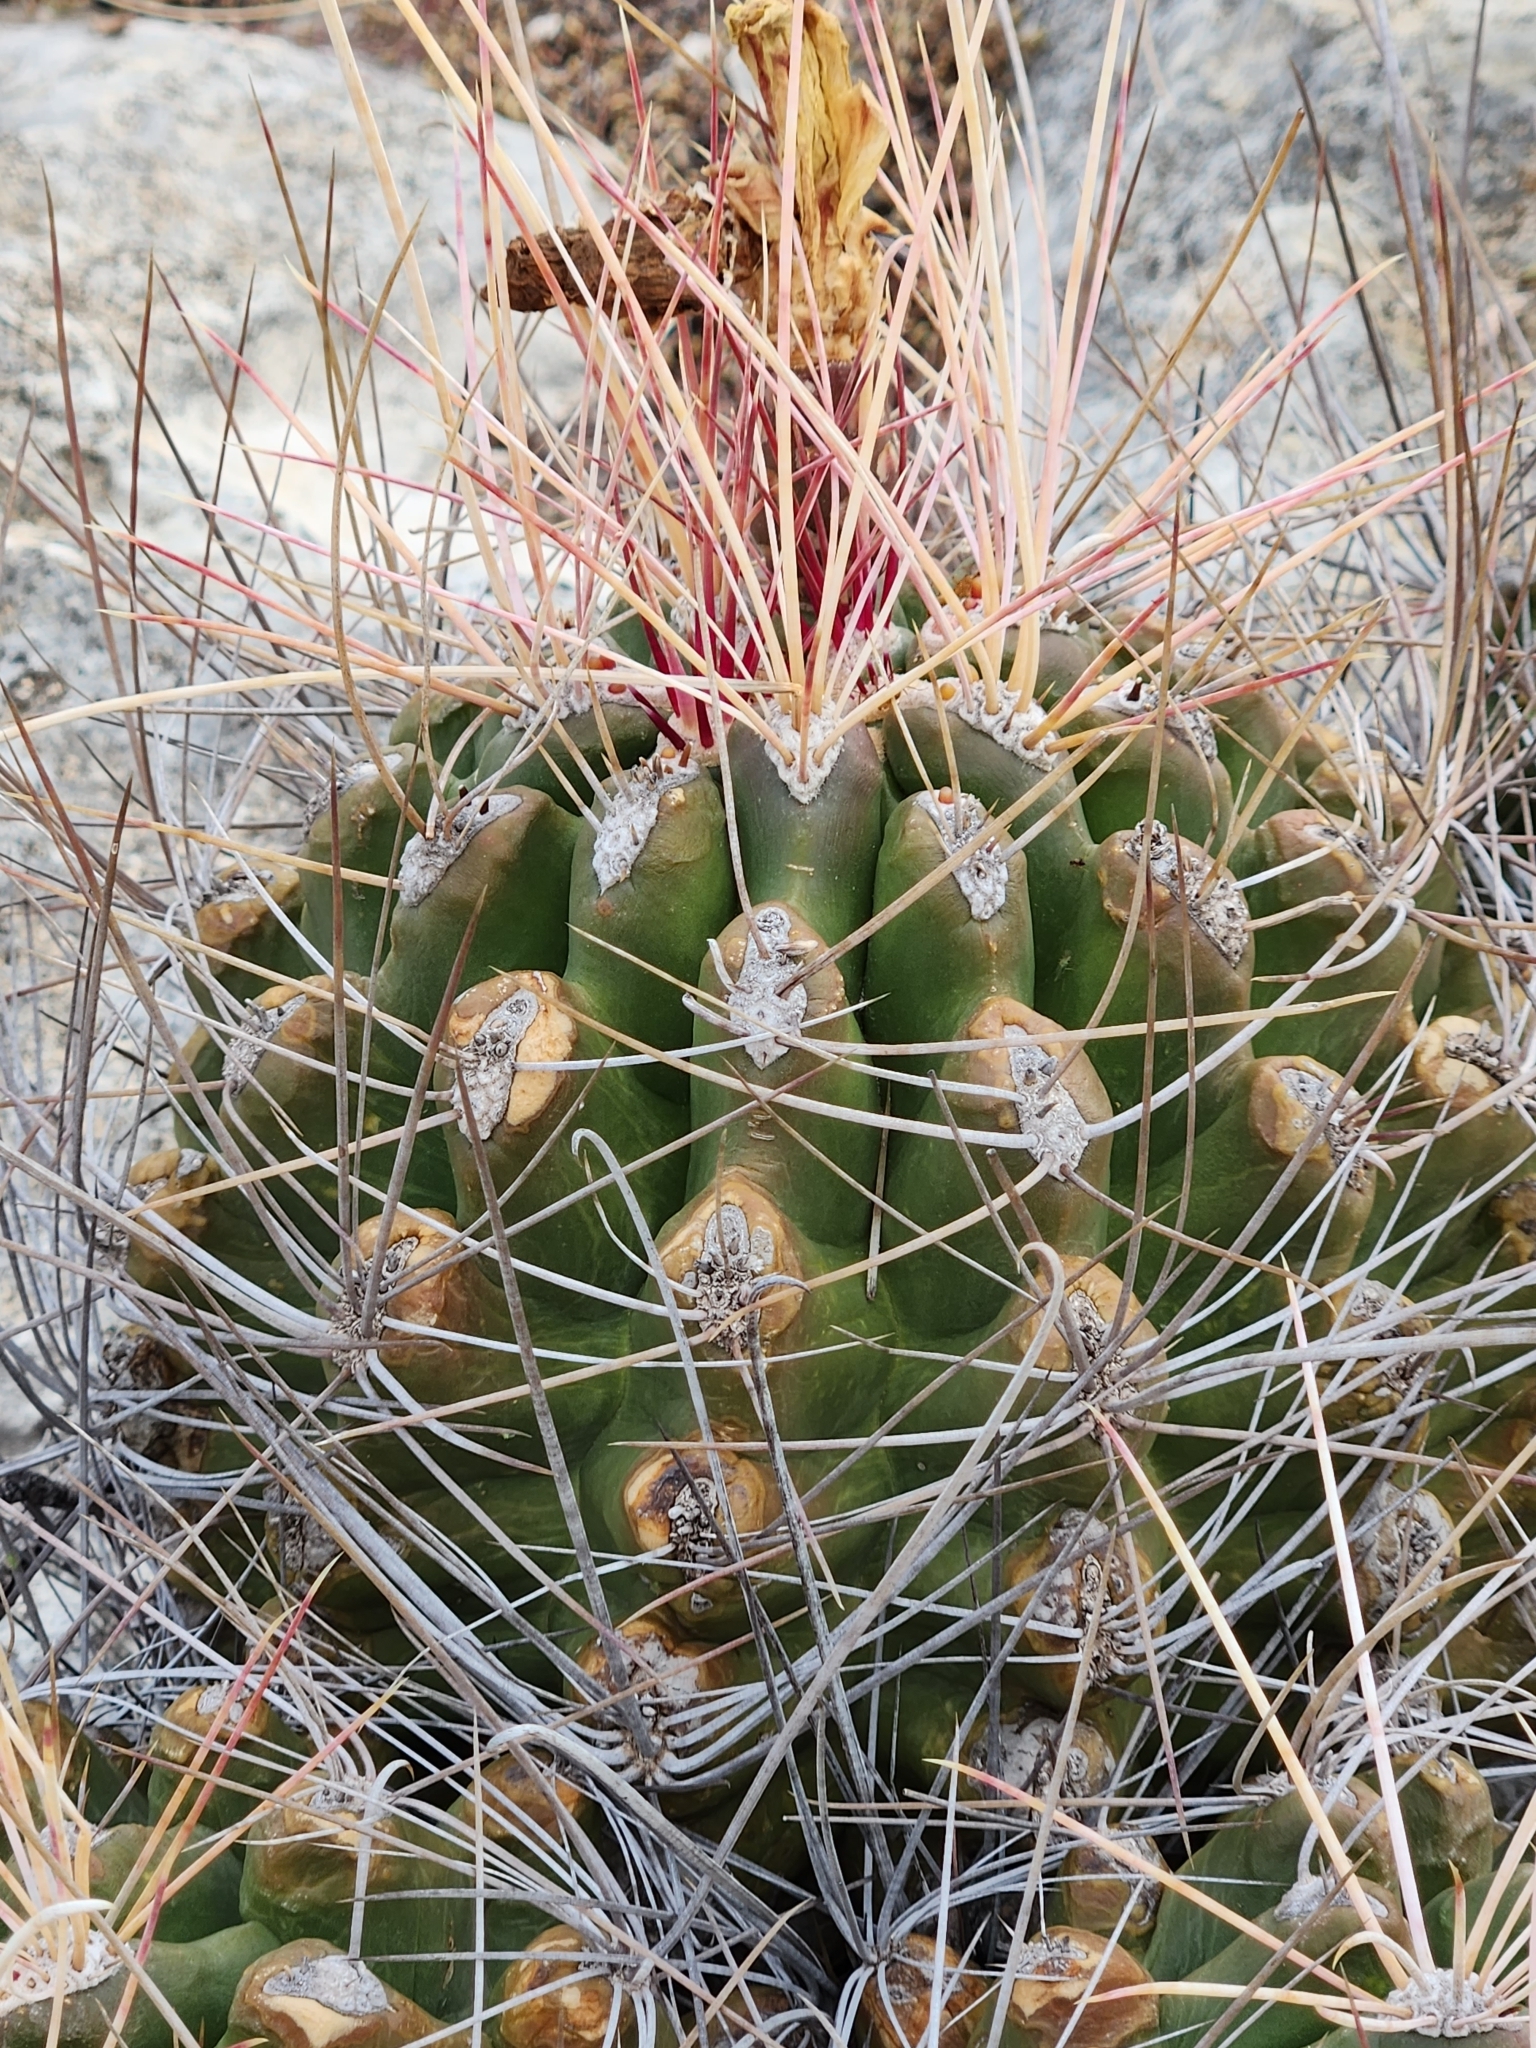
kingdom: Plantae
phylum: Tracheophyta
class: Magnoliopsida
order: Caryophyllales
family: Cactaceae
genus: Bisnaga
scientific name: Bisnaga hamatacantha
